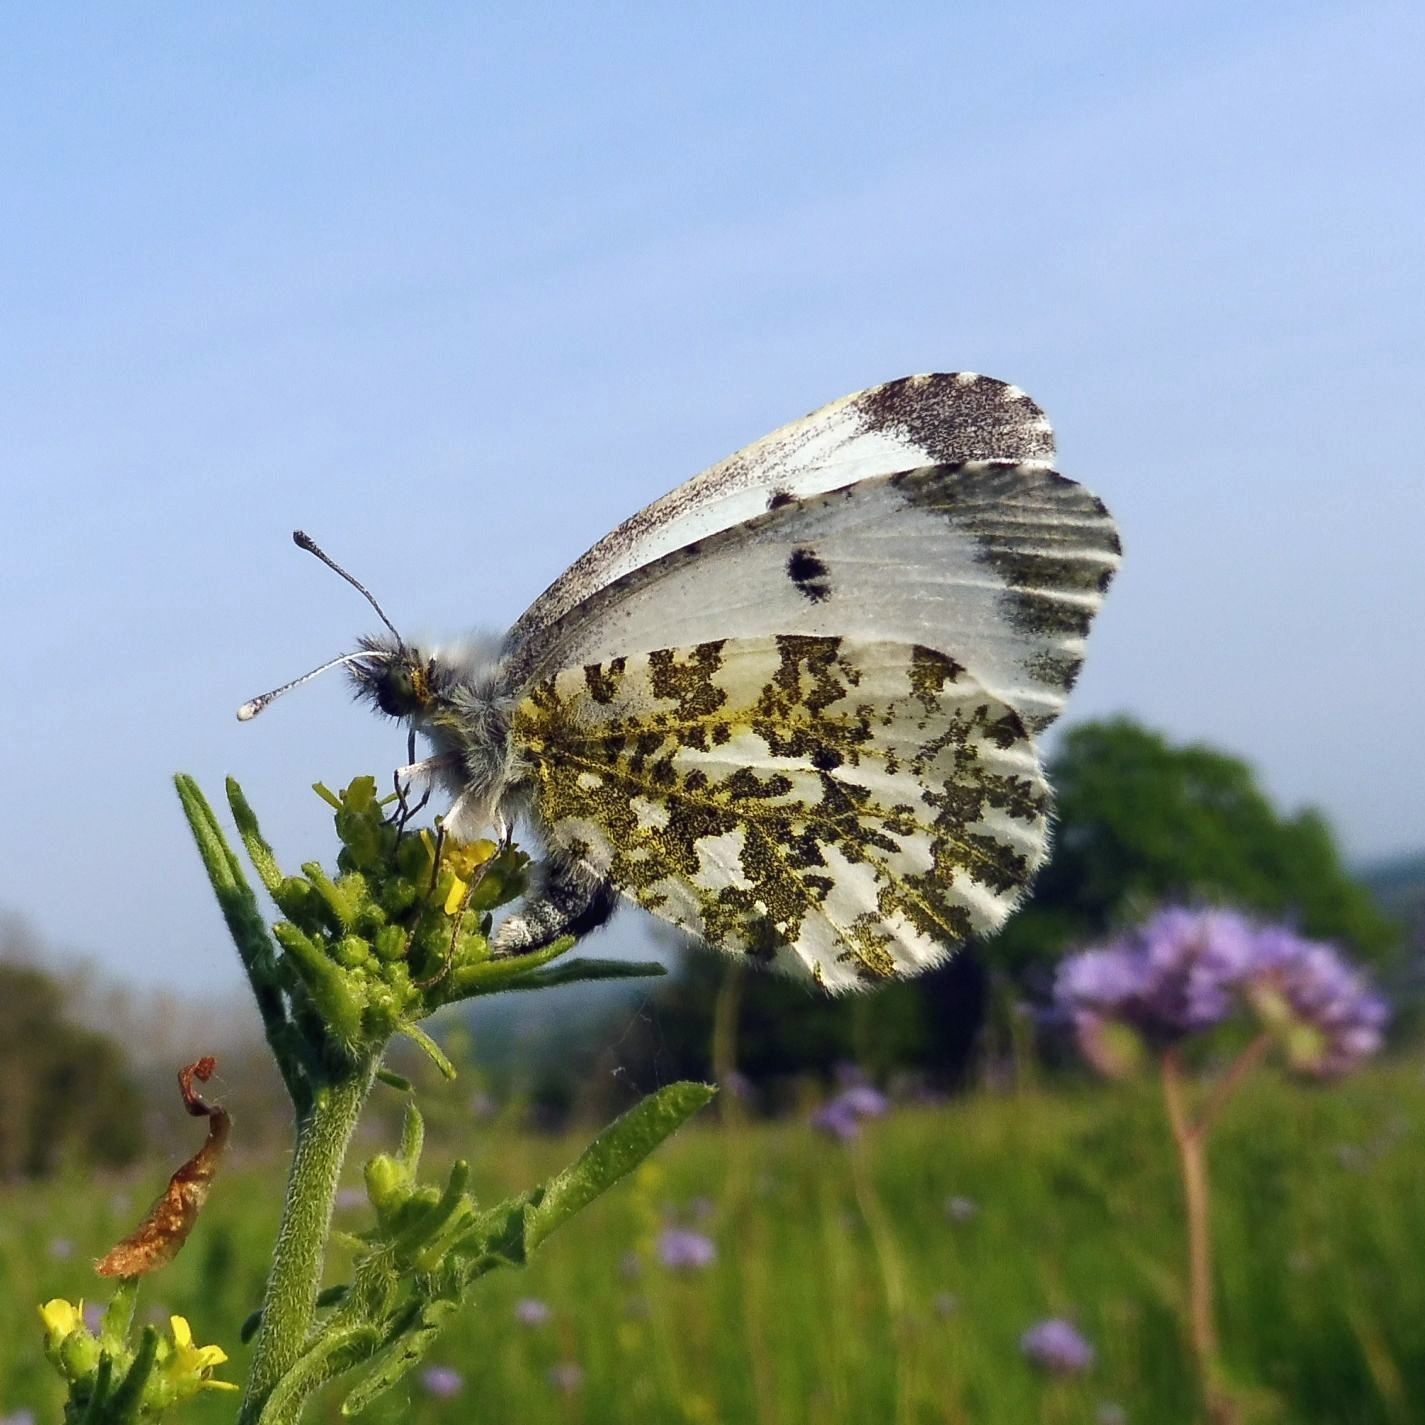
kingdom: Animalia
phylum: Arthropoda
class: Insecta
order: Lepidoptera
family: Pieridae
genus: Anthocharis
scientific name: Anthocharis cardamines
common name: Orange-tip
